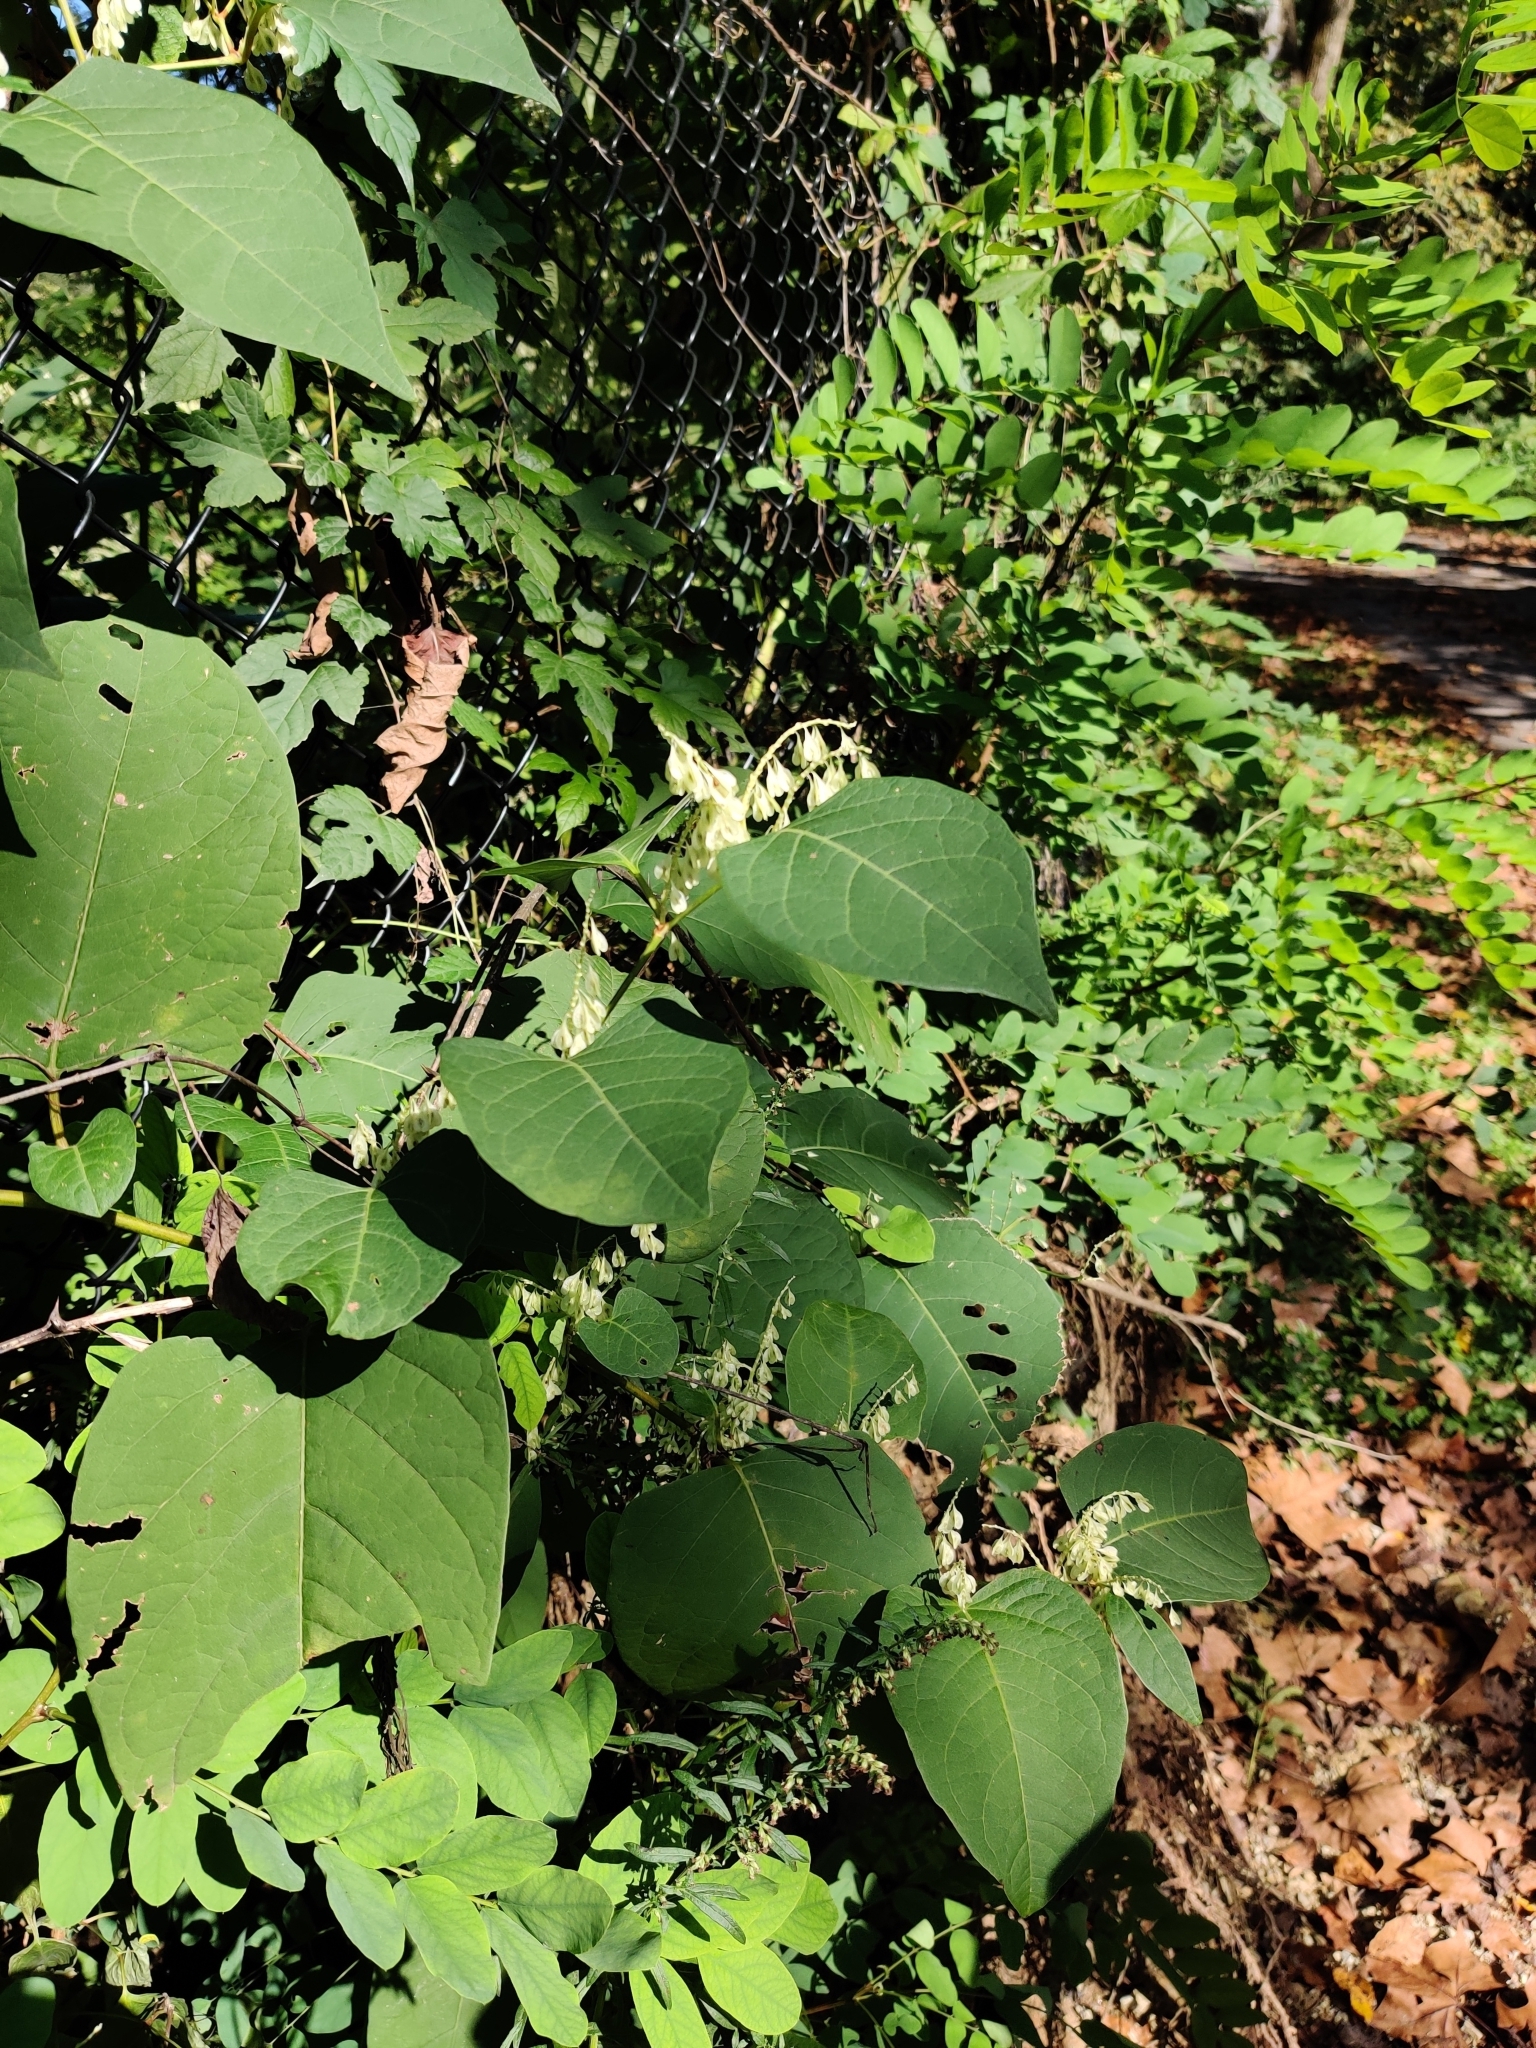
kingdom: Plantae
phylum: Tracheophyta
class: Magnoliopsida
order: Caryophyllales
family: Polygonaceae
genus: Reynoutria
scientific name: Reynoutria japonica
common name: Japanese knotweed
